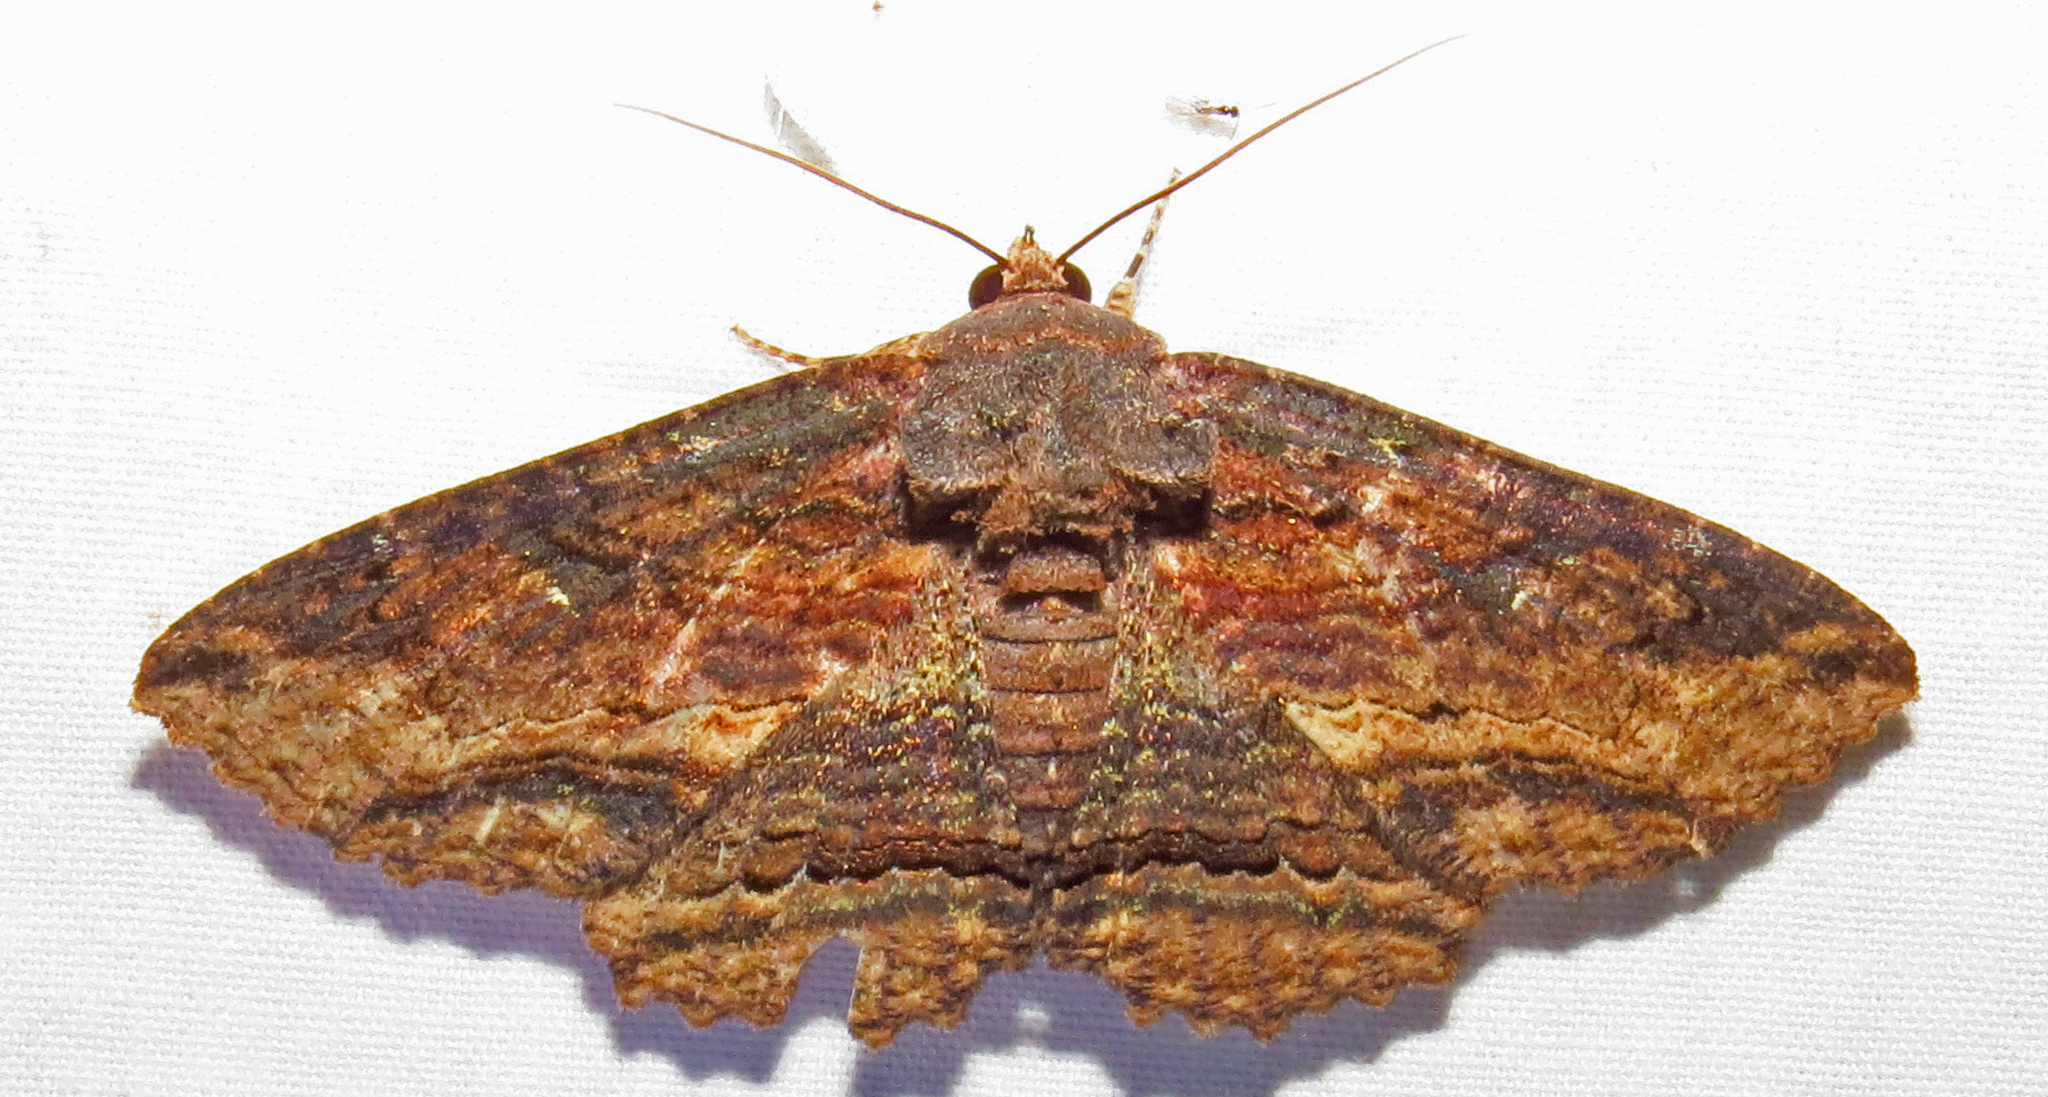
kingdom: Animalia
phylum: Arthropoda
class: Insecta
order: Lepidoptera
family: Erebidae
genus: Zale
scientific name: Zale lunata
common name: Lunate zale moth
